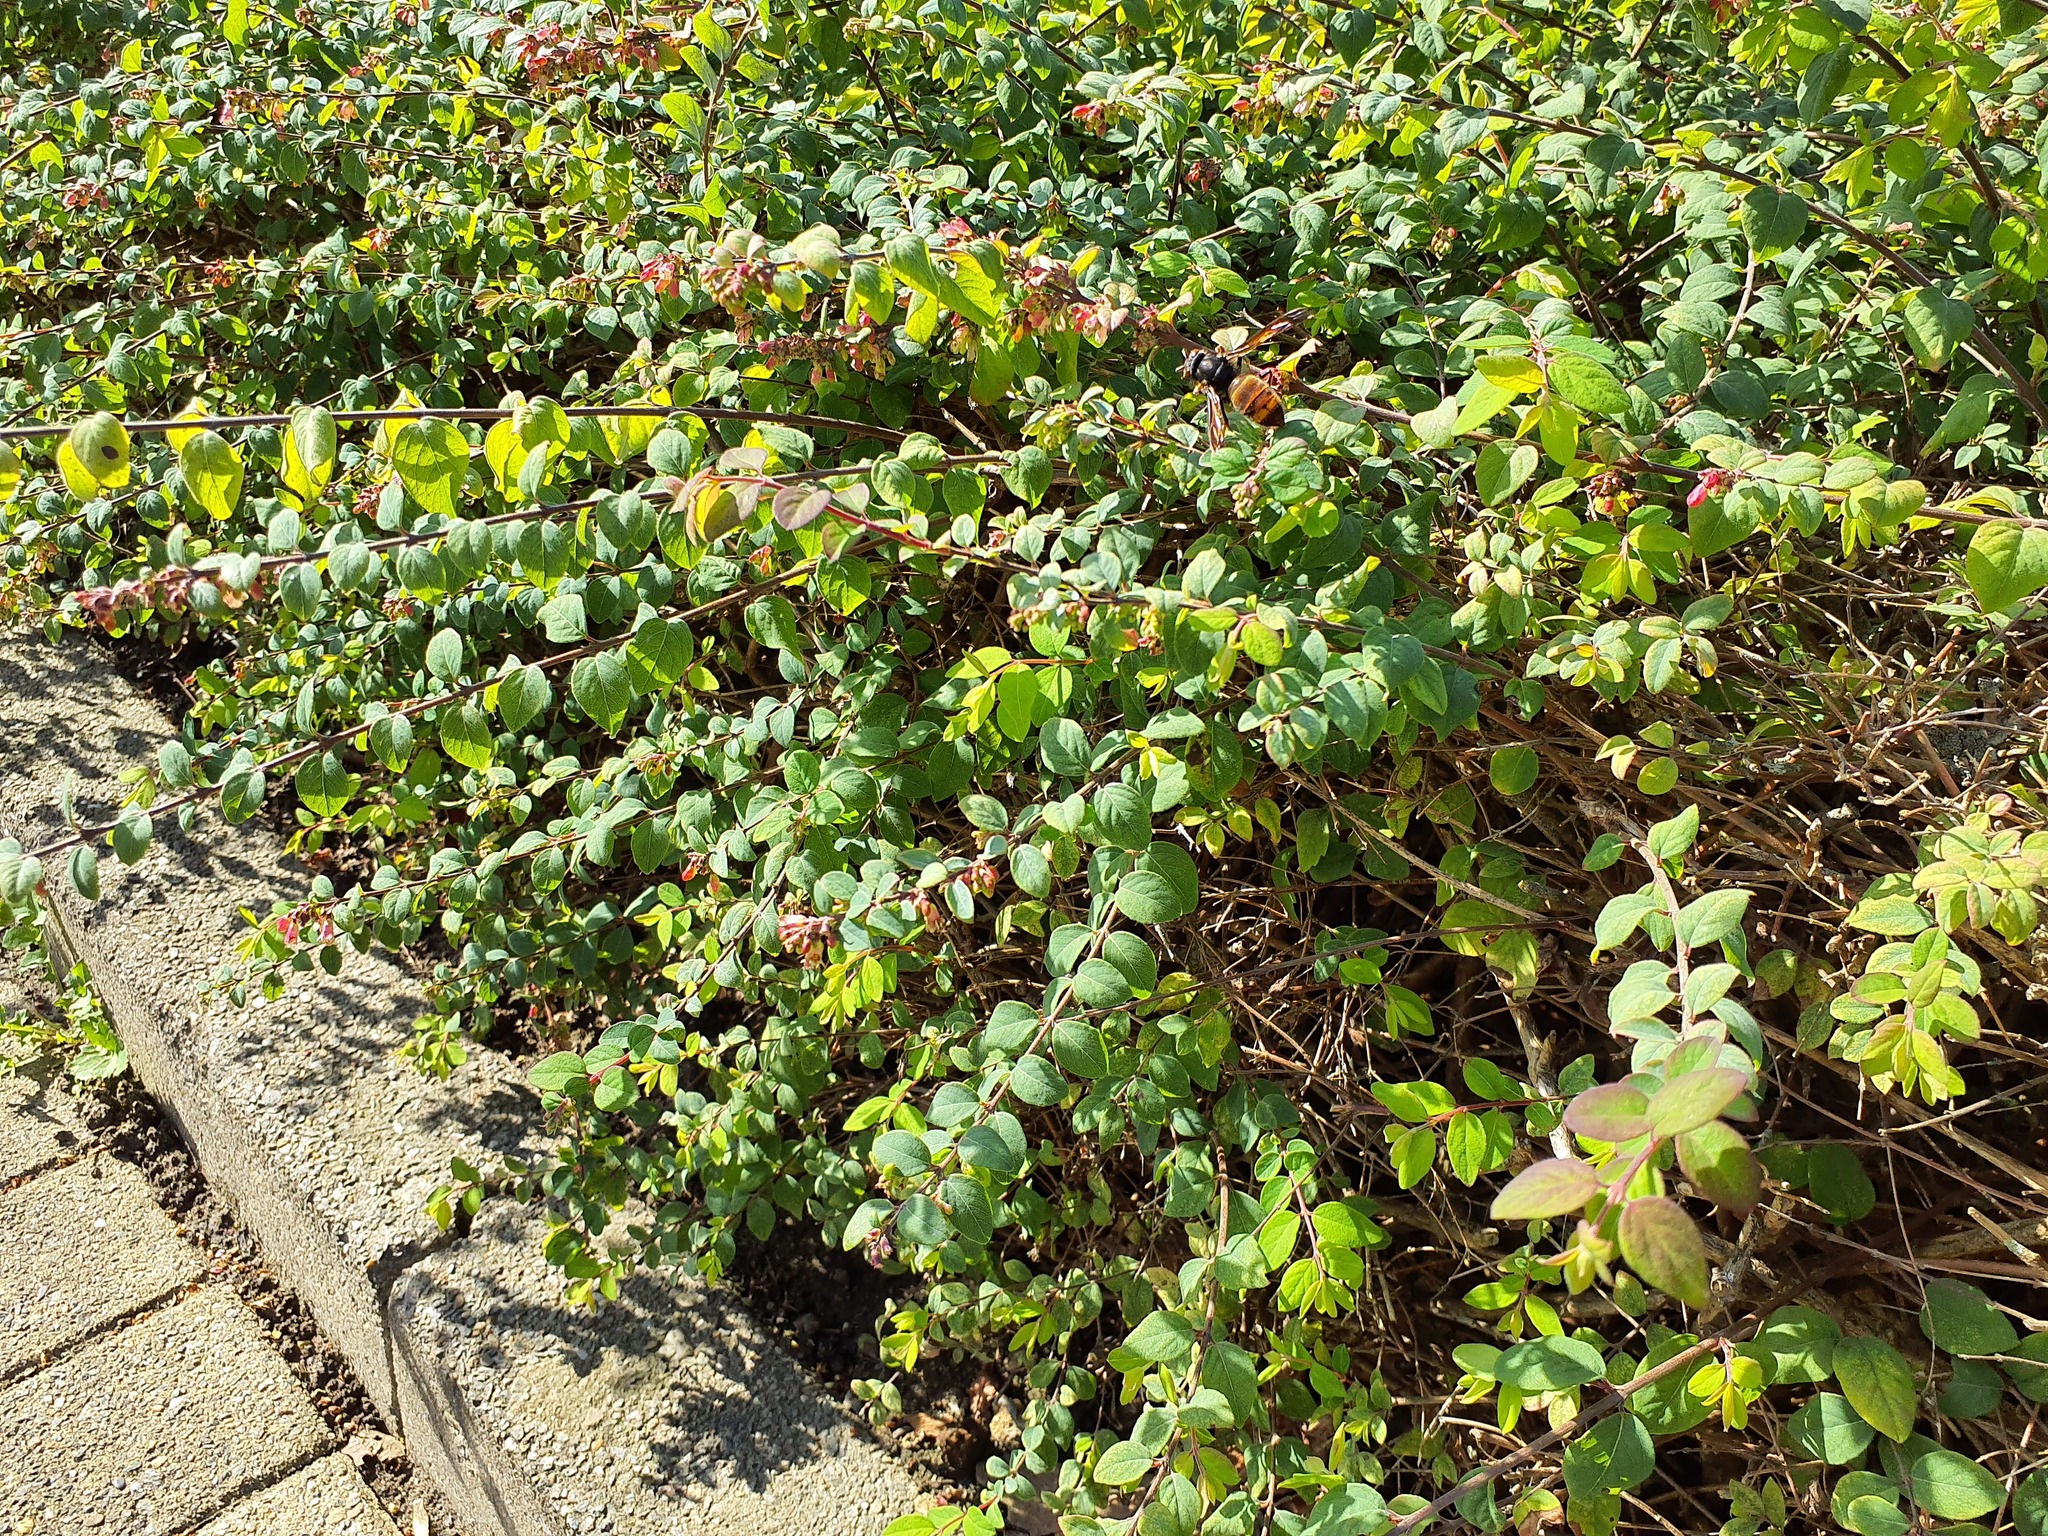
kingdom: Animalia
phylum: Arthropoda
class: Insecta
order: Hymenoptera
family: Vespidae
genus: Vespa
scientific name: Vespa velutina
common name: Asian hornet
